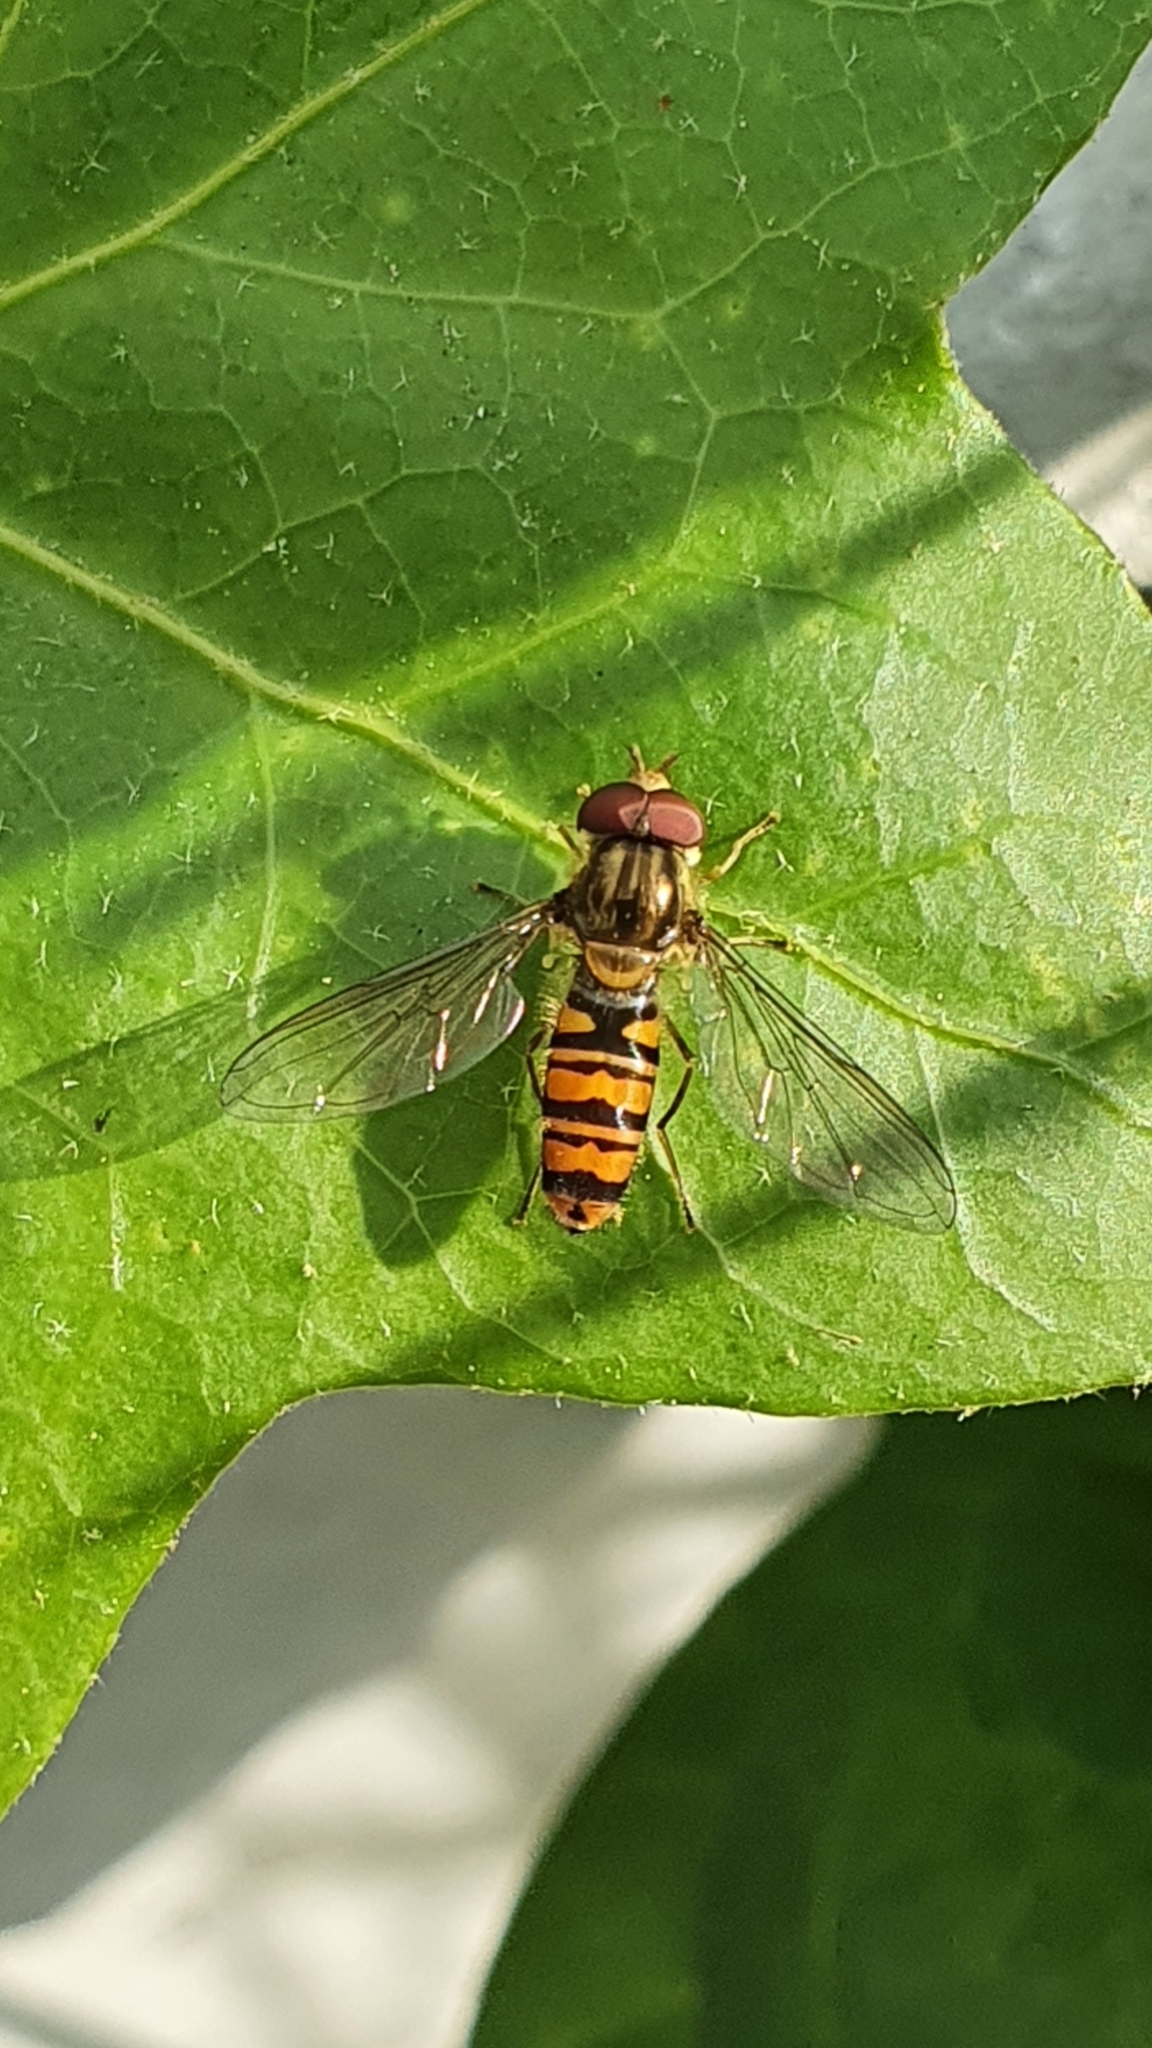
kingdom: Animalia
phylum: Arthropoda
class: Insecta
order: Diptera
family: Syrphidae
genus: Episyrphus
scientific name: Episyrphus balteatus
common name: Marmalade hoverfly
